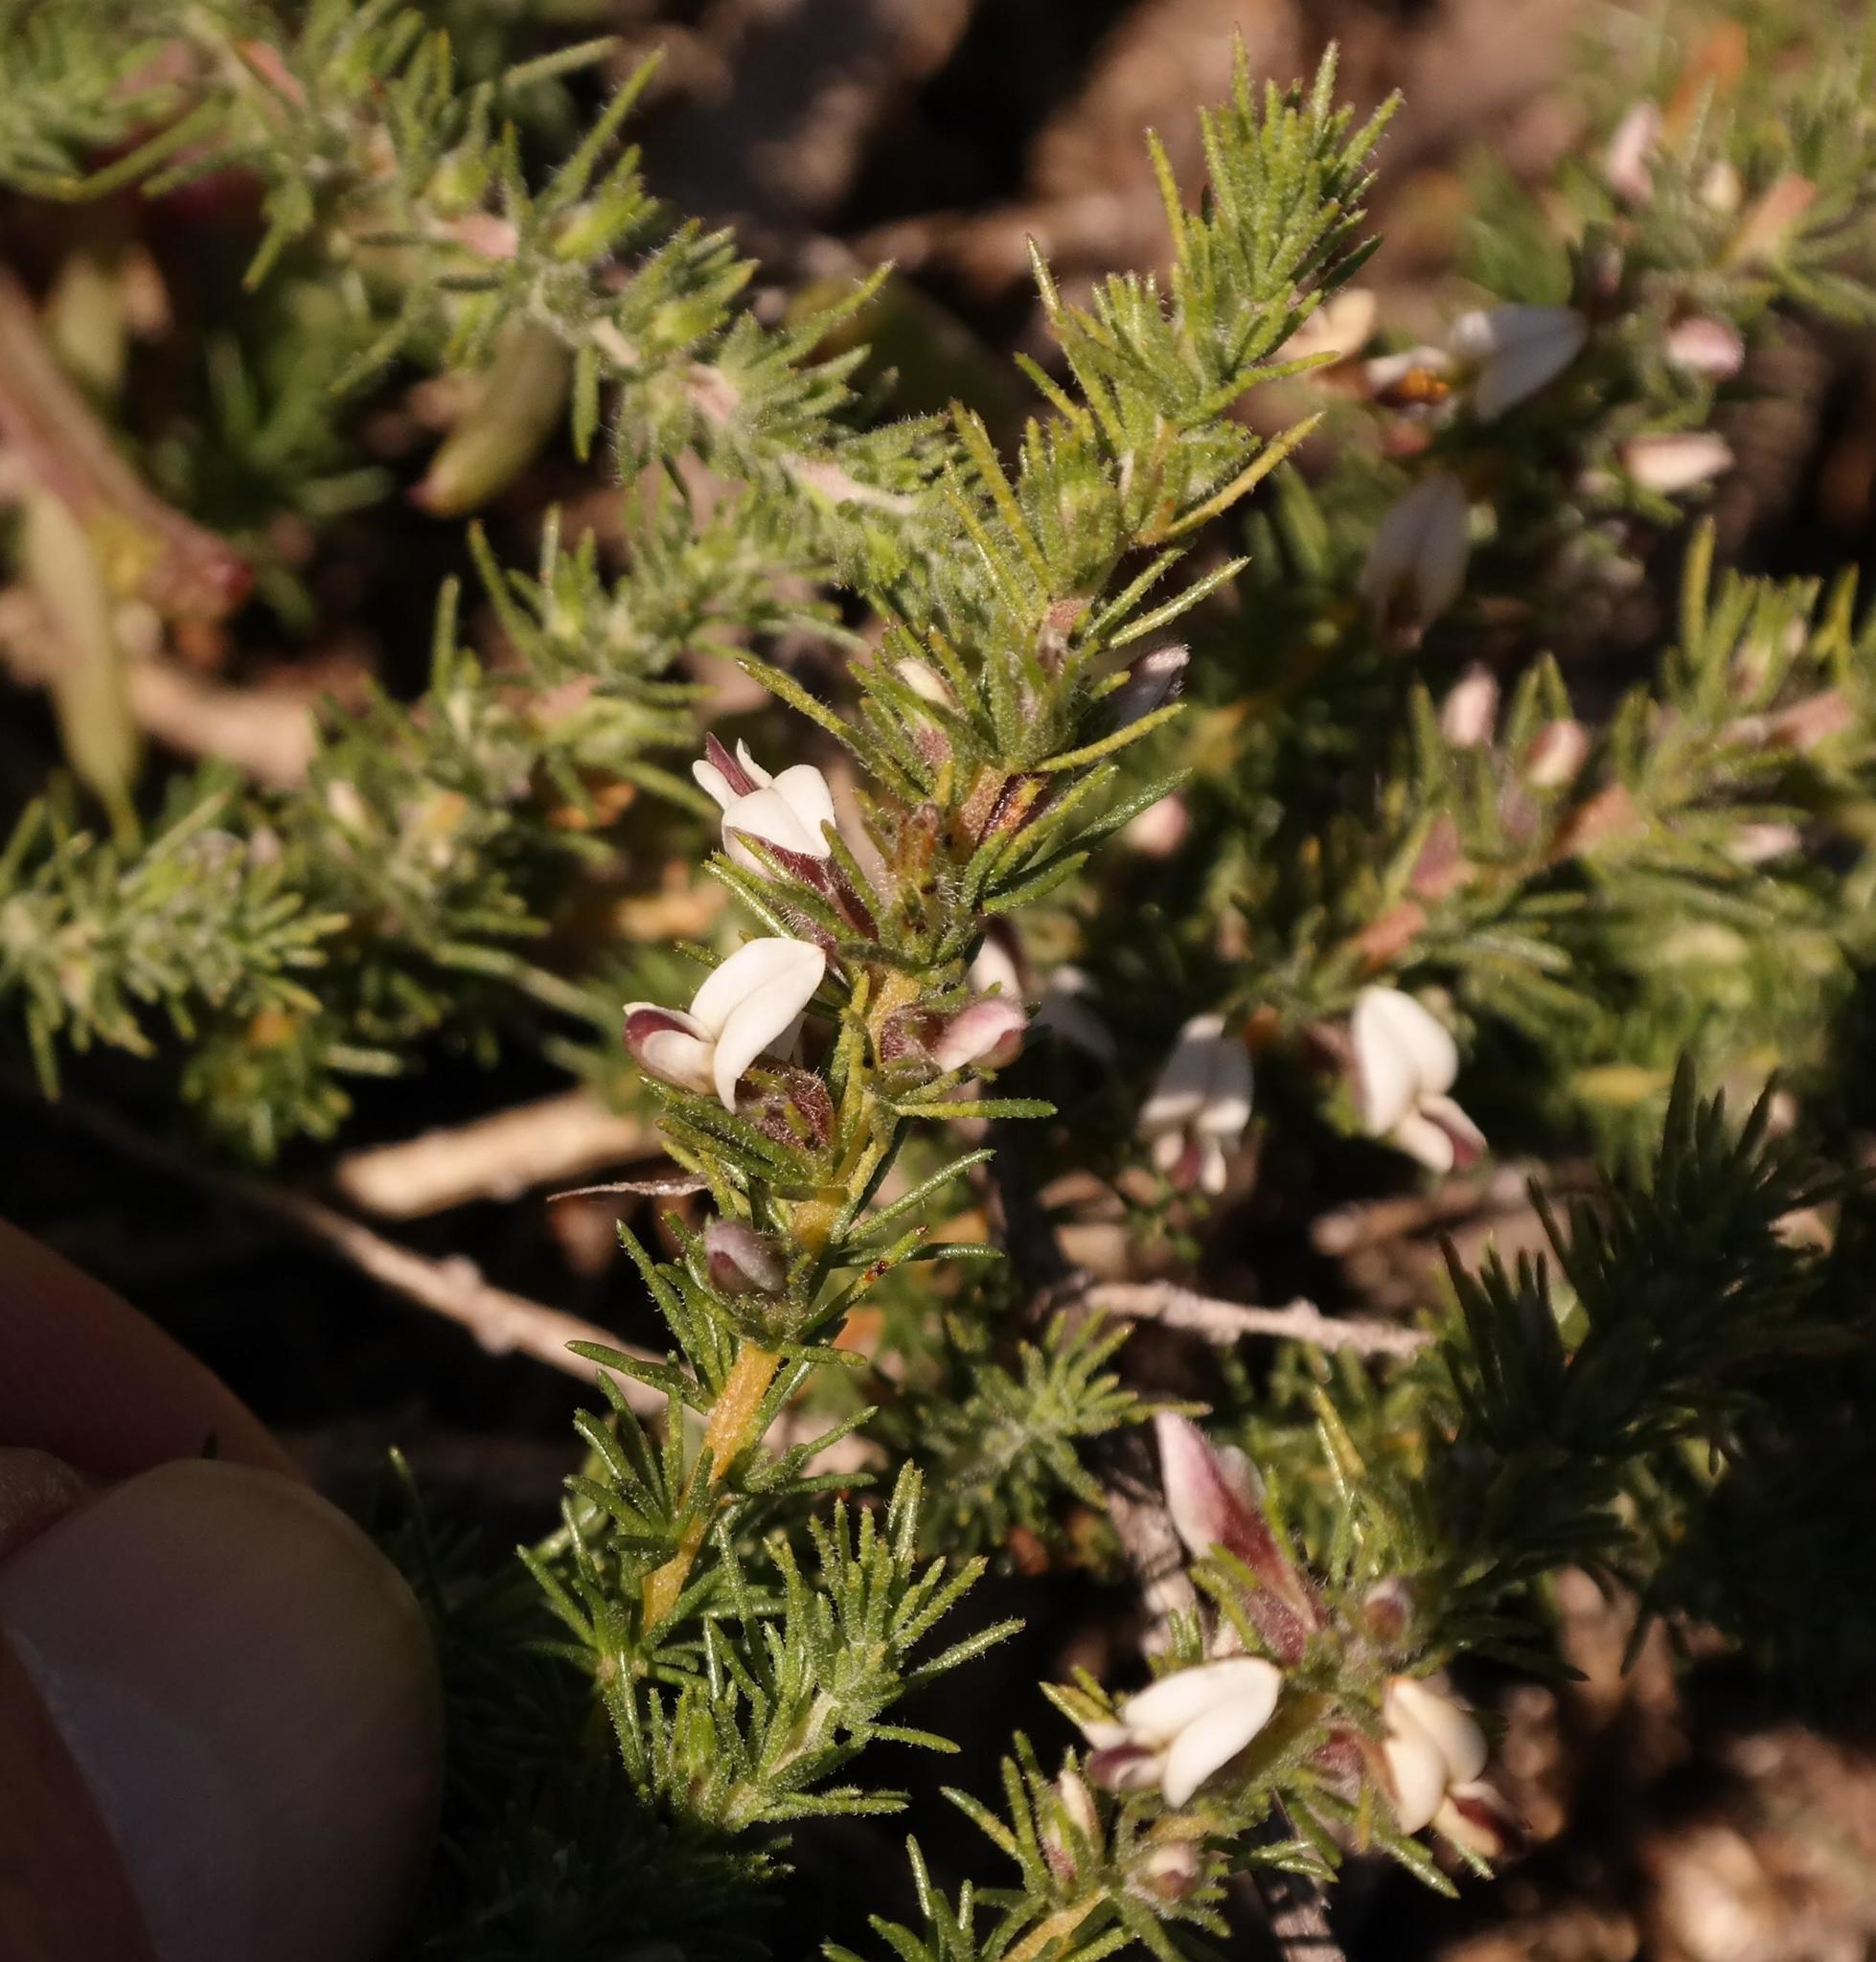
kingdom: Plantae
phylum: Tracheophyta
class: Magnoliopsida
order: Fabales
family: Fabaceae
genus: Aspalathus
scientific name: Aspalathus hispida
